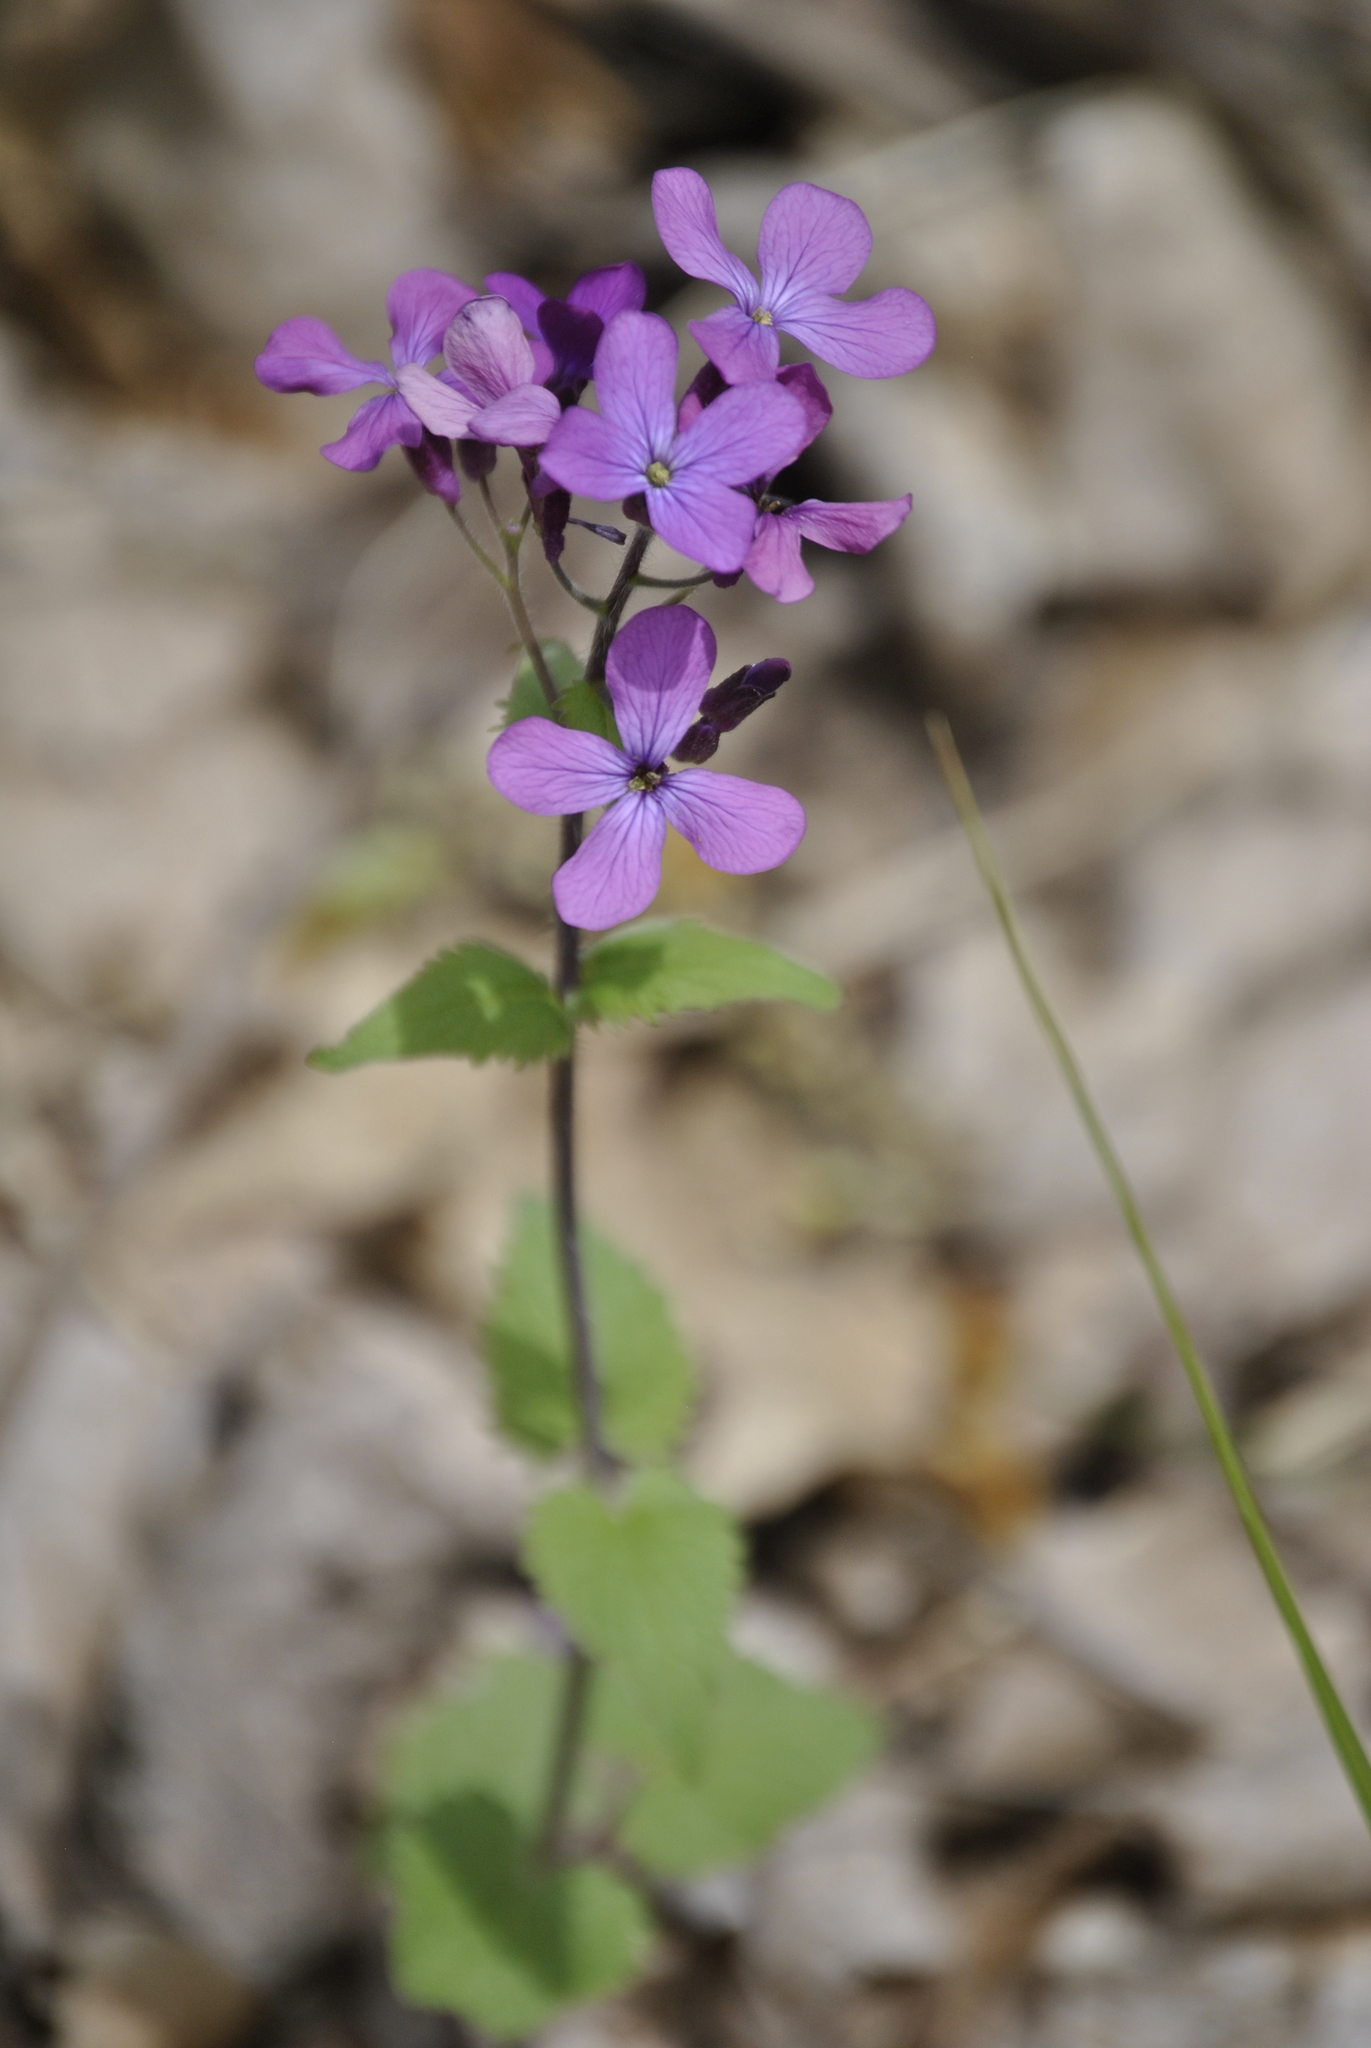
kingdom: Plantae
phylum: Tracheophyta
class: Magnoliopsida
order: Brassicales
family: Brassicaceae
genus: Lunaria
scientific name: Lunaria annua
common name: Honesty
